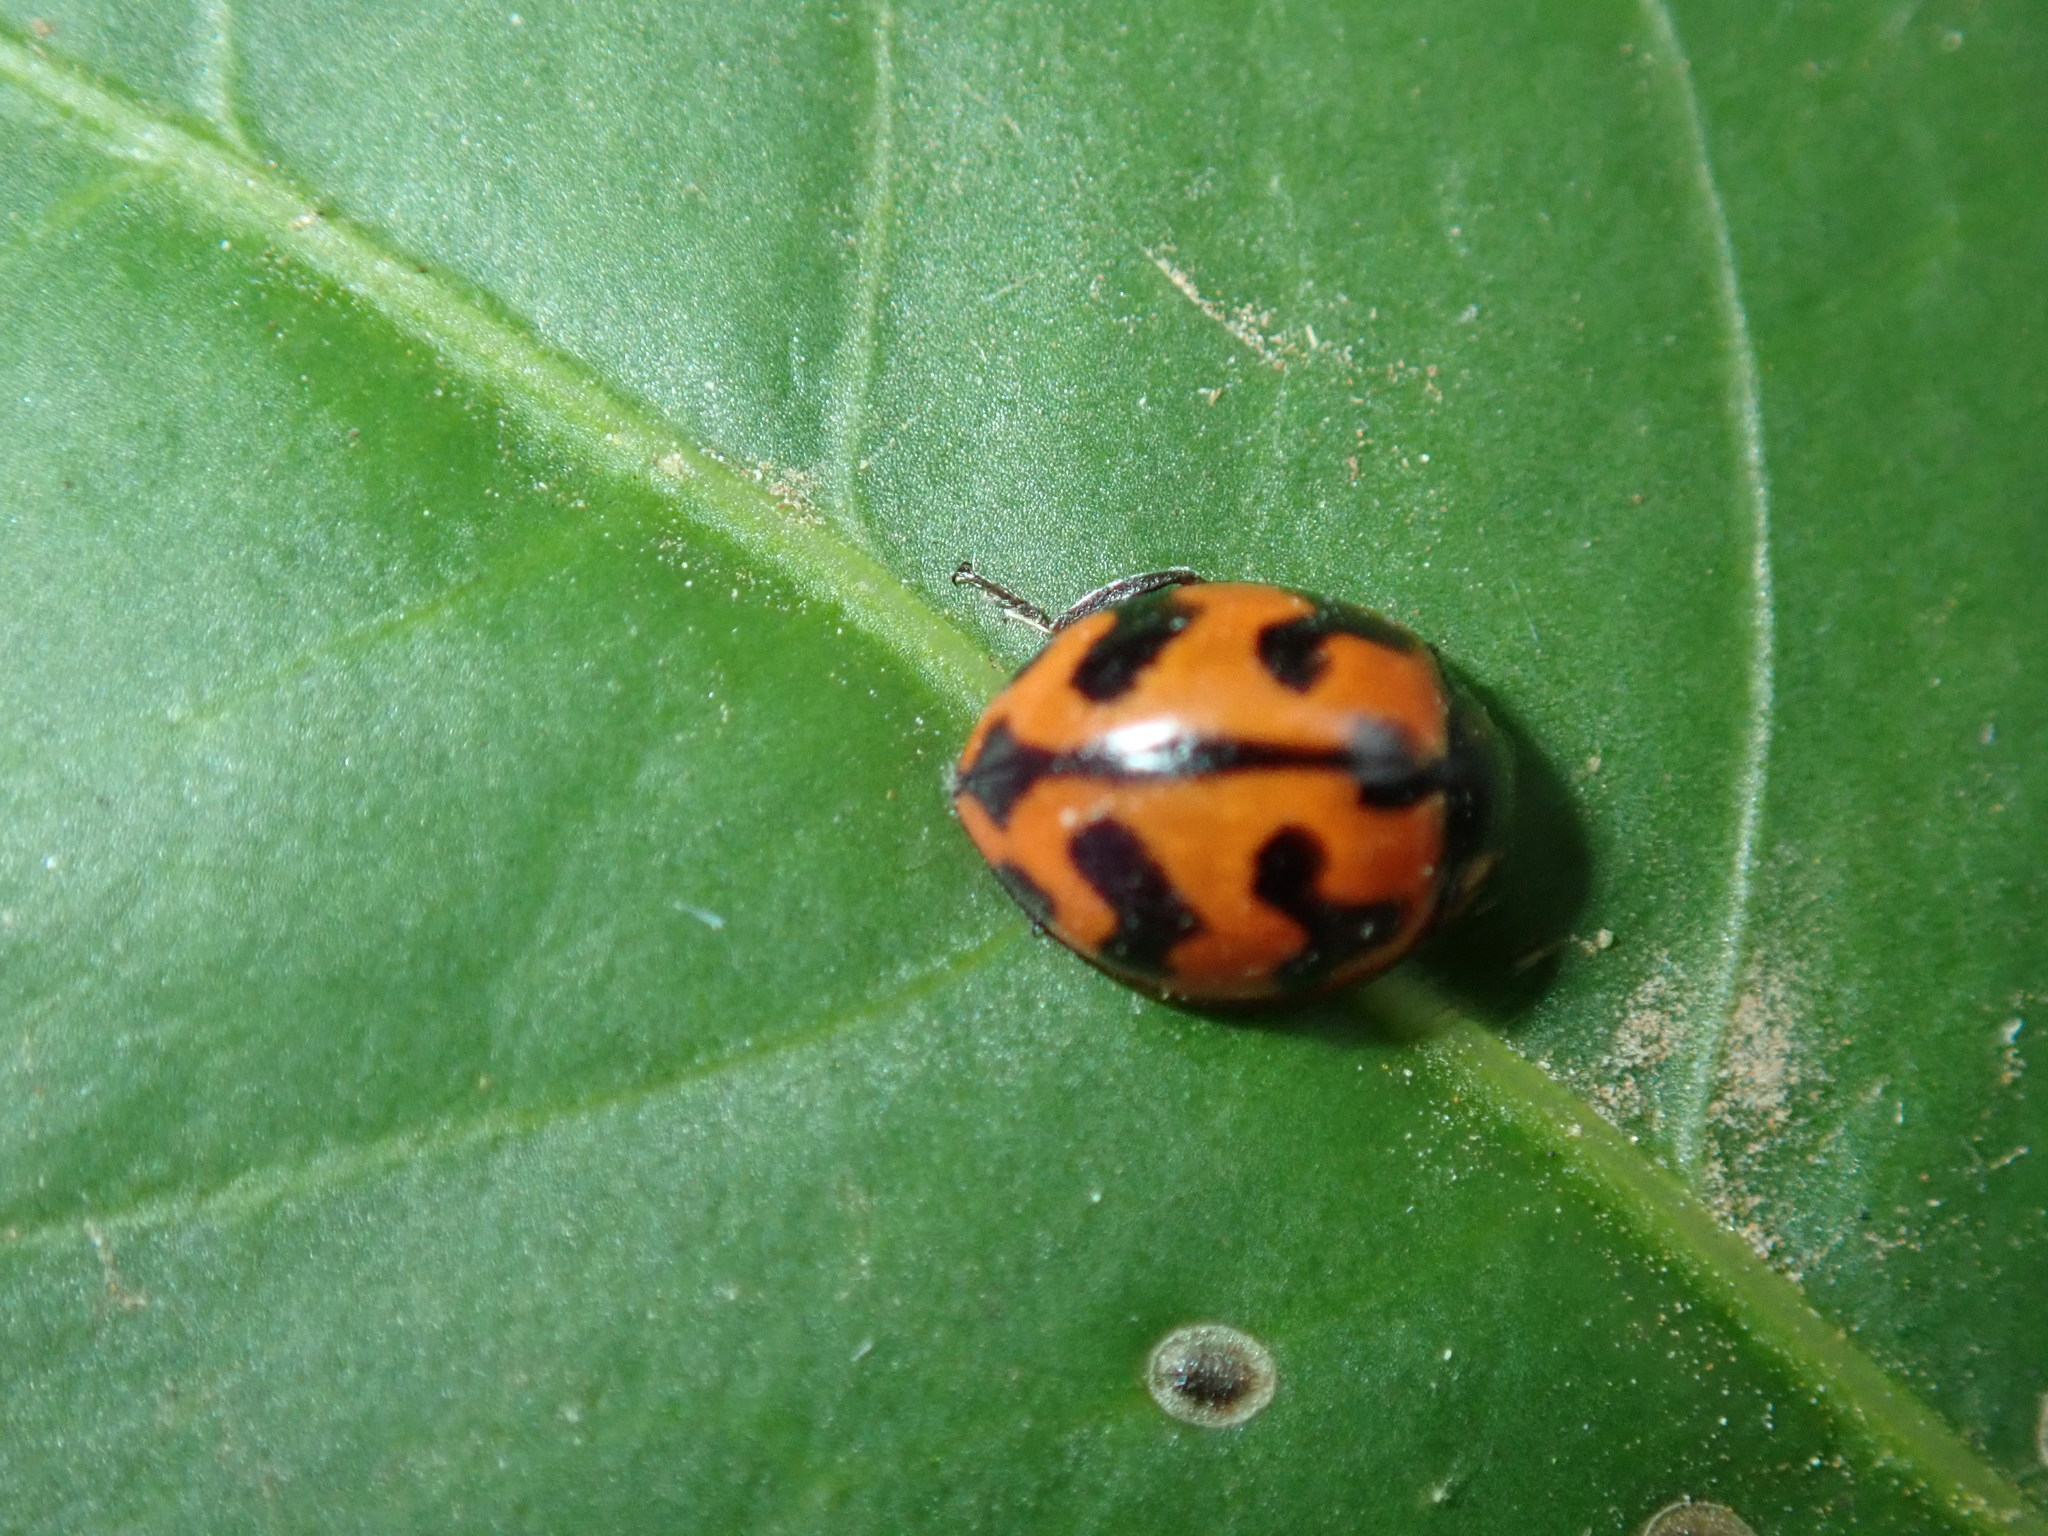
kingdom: Animalia
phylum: Arthropoda
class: Insecta
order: Coleoptera
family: Coccinellidae
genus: Coccinella
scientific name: Coccinella transversalis
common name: Transverse lady beetle
